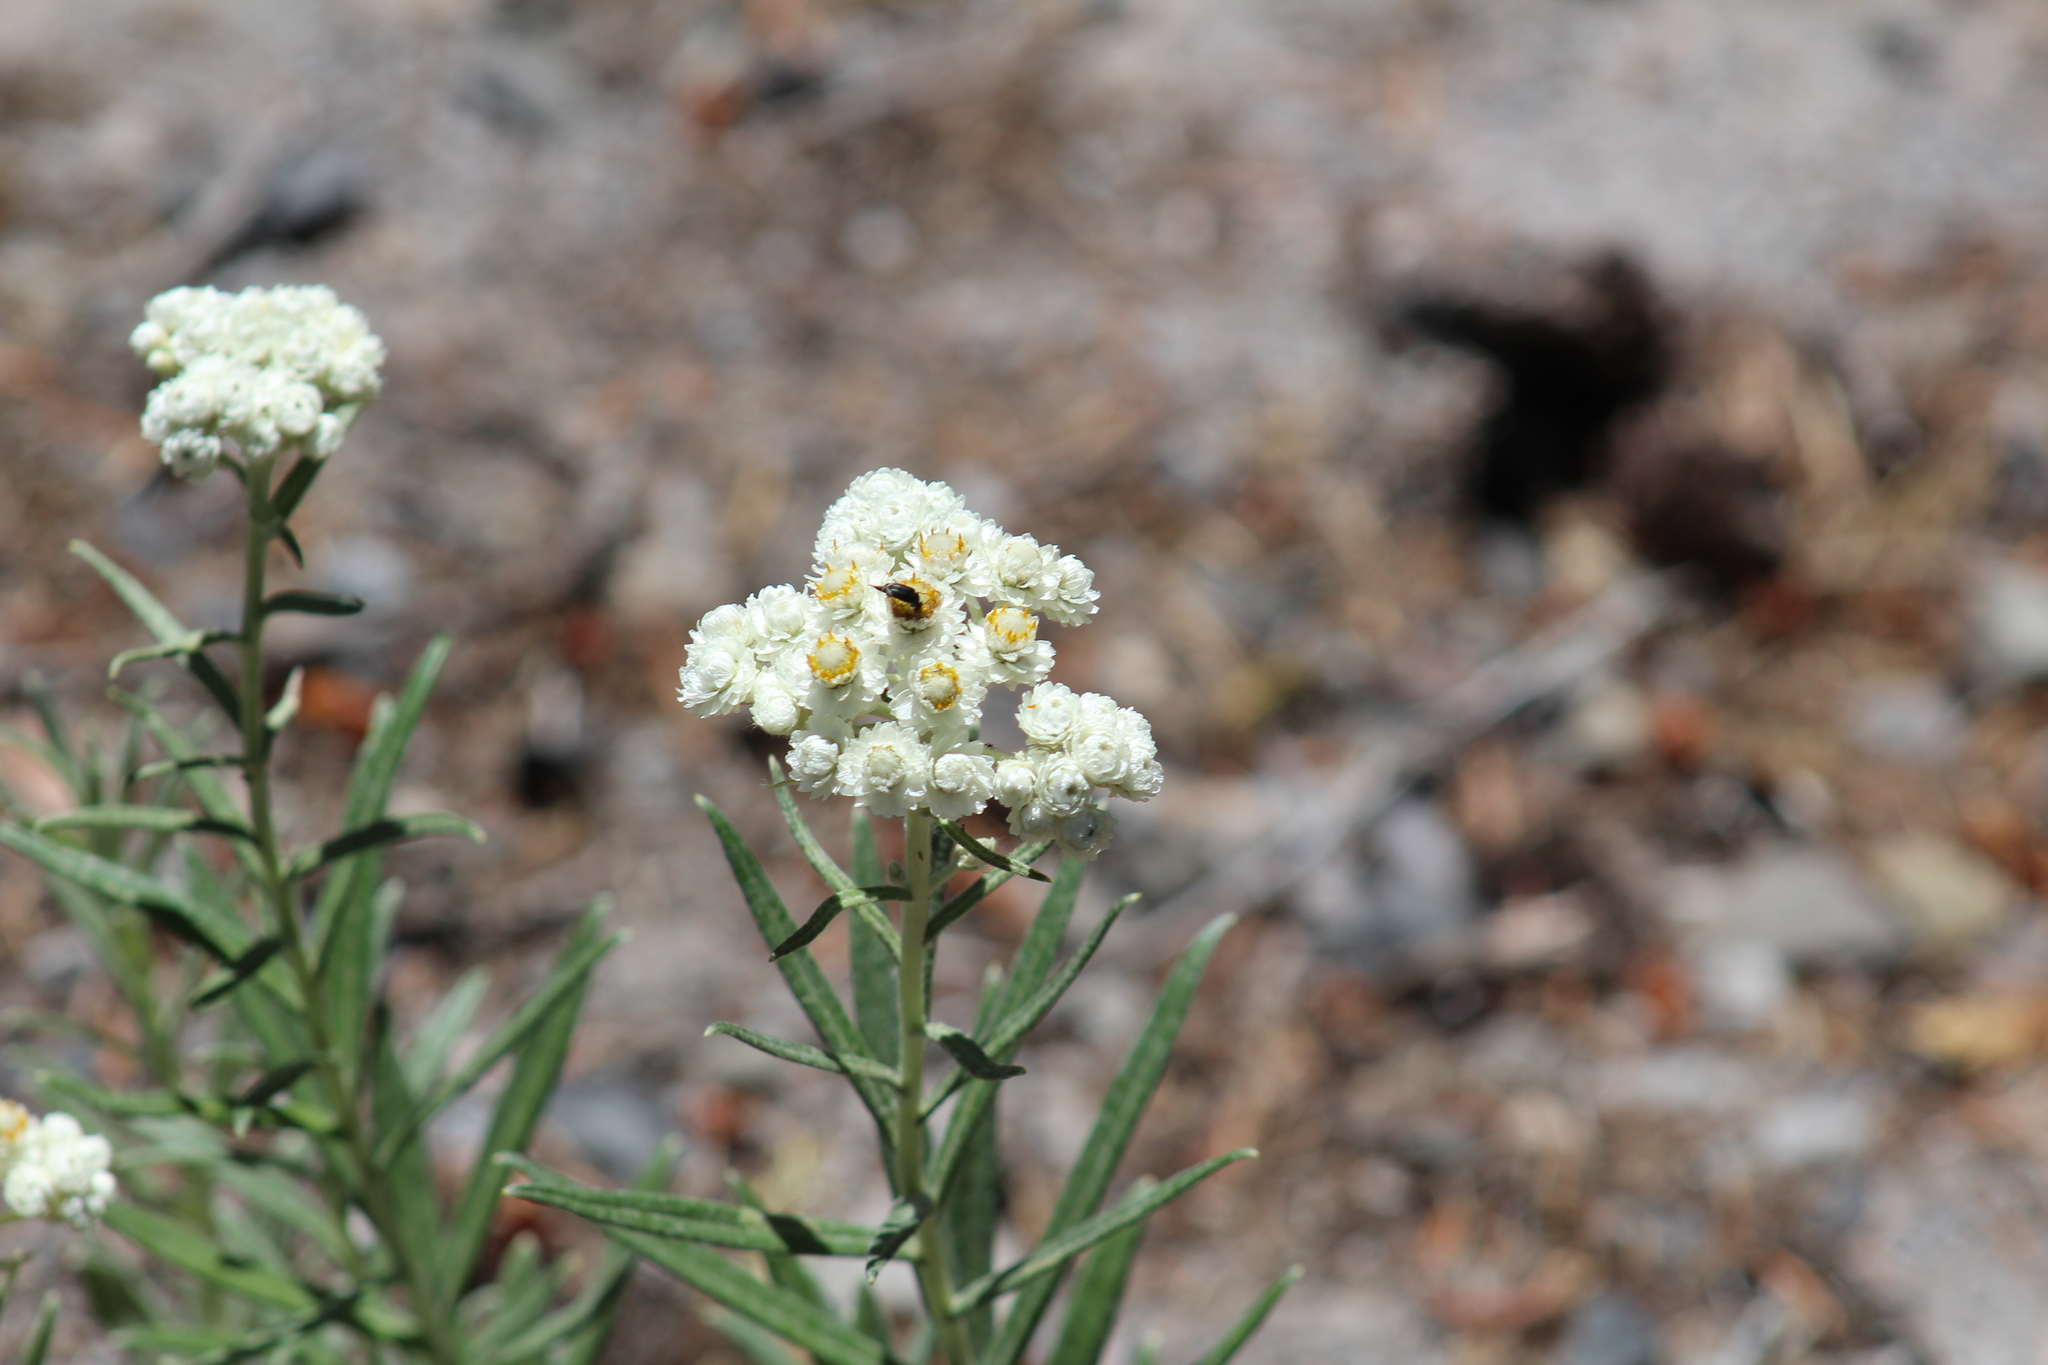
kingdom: Plantae
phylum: Tracheophyta
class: Magnoliopsida
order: Asterales
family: Asteraceae
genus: Anaphalis
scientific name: Anaphalis margaritacea
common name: Pearly everlasting
